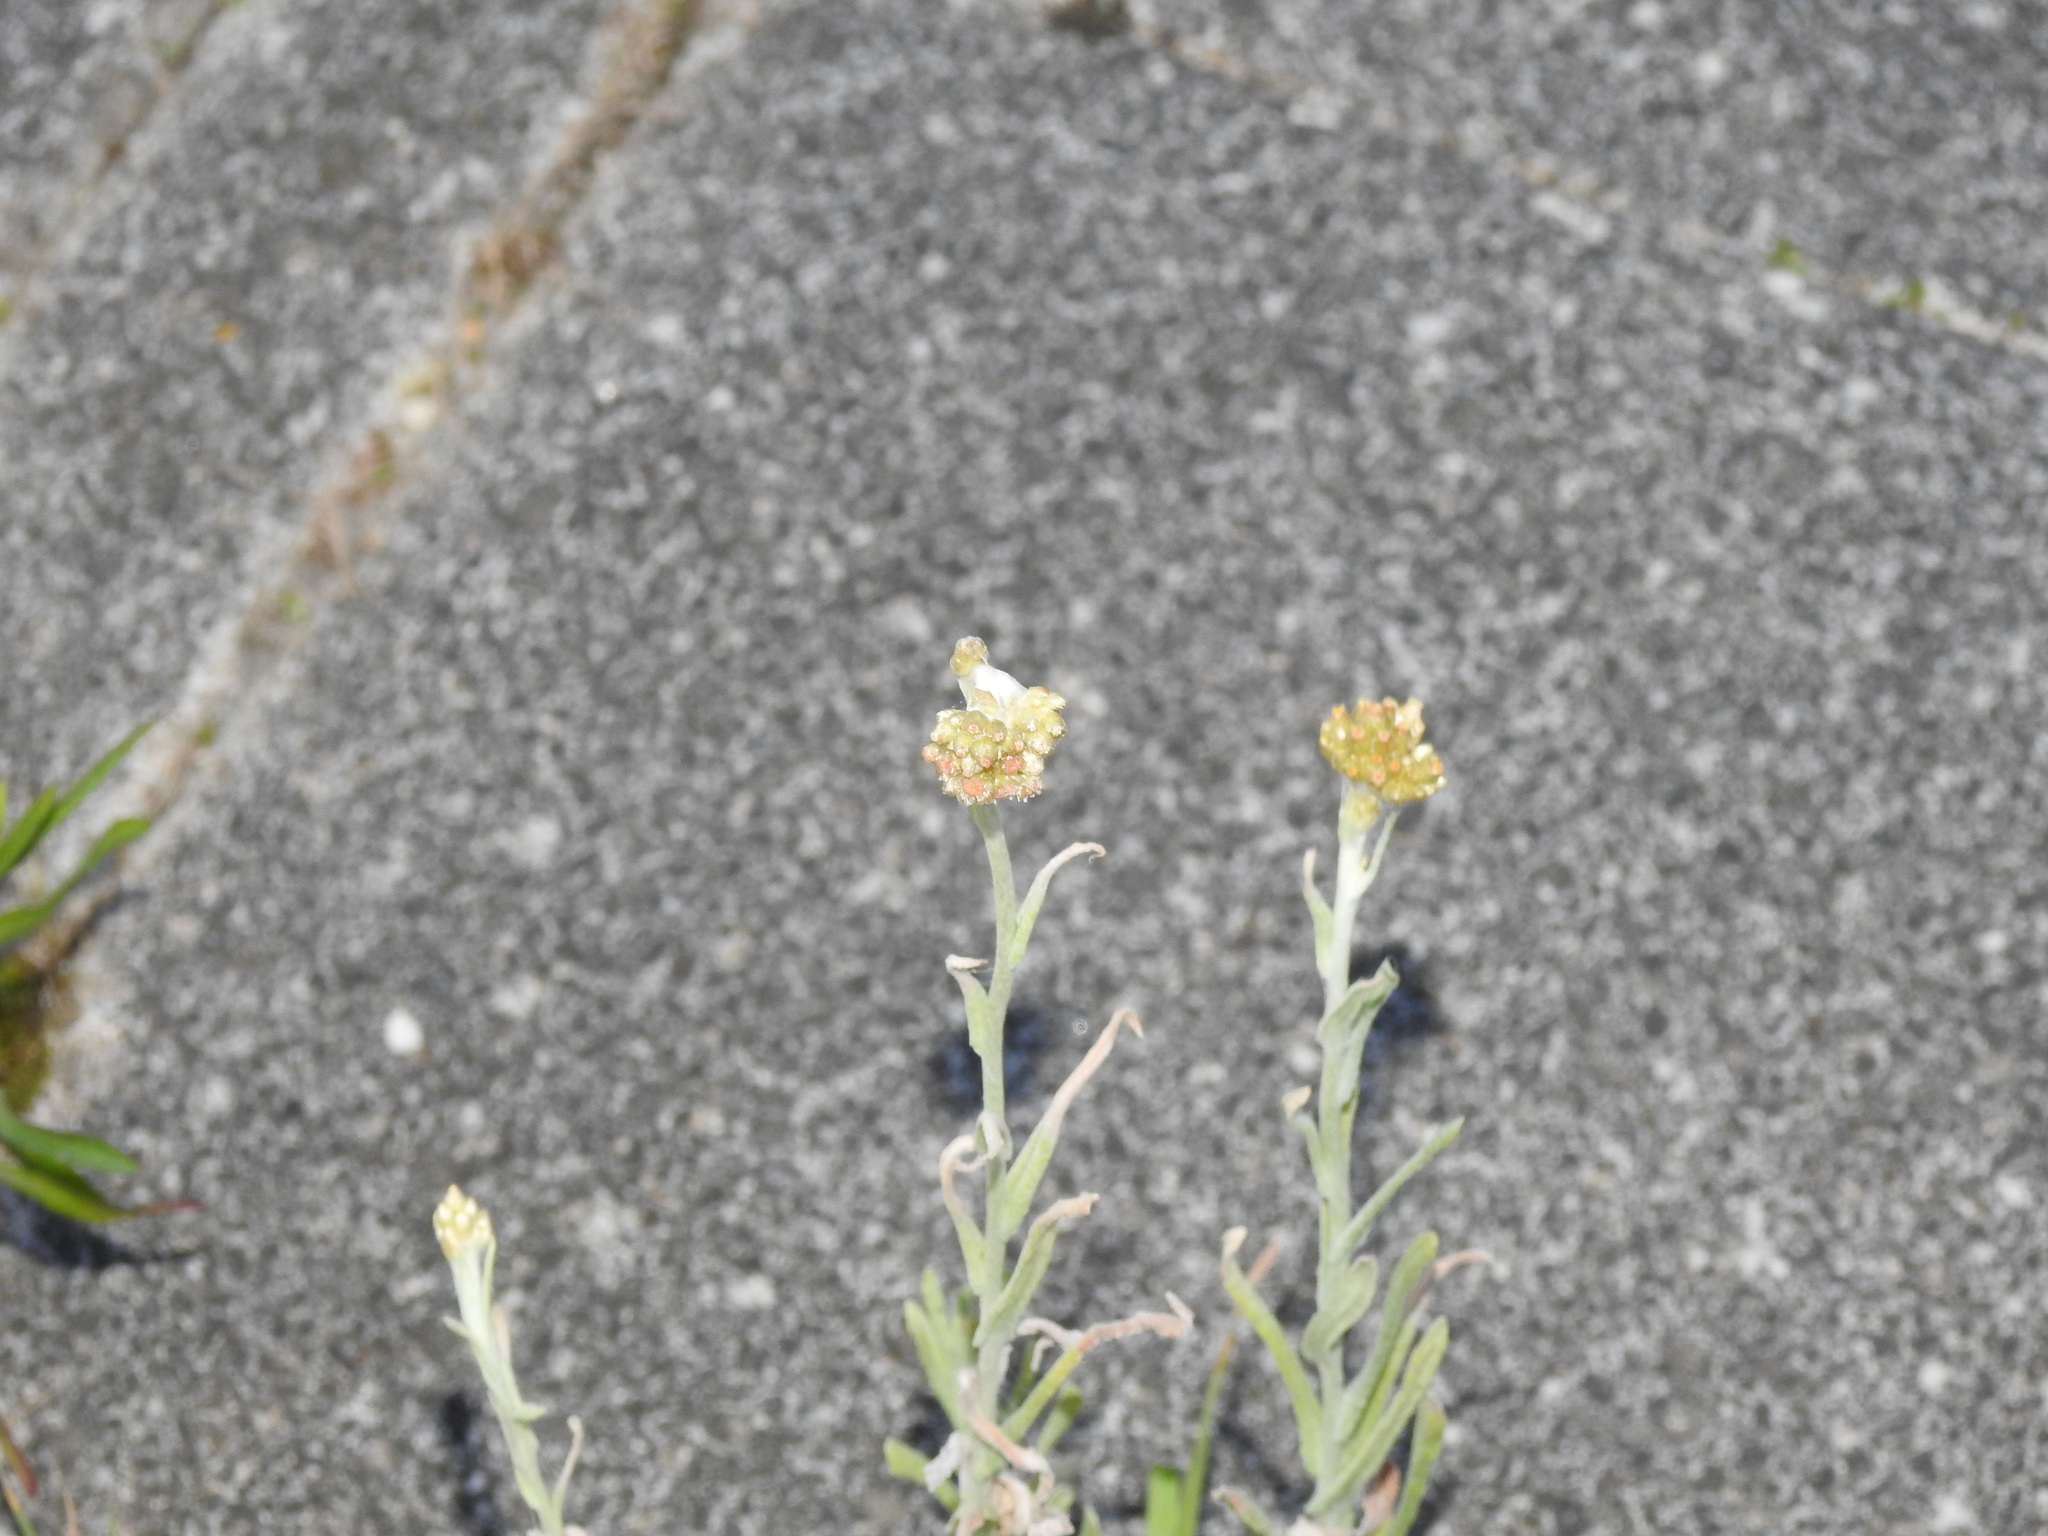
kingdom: Plantae
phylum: Tracheophyta
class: Magnoliopsida
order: Asterales
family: Asteraceae
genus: Helichrysum
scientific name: Helichrysum luteoalbum
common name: Daisy
